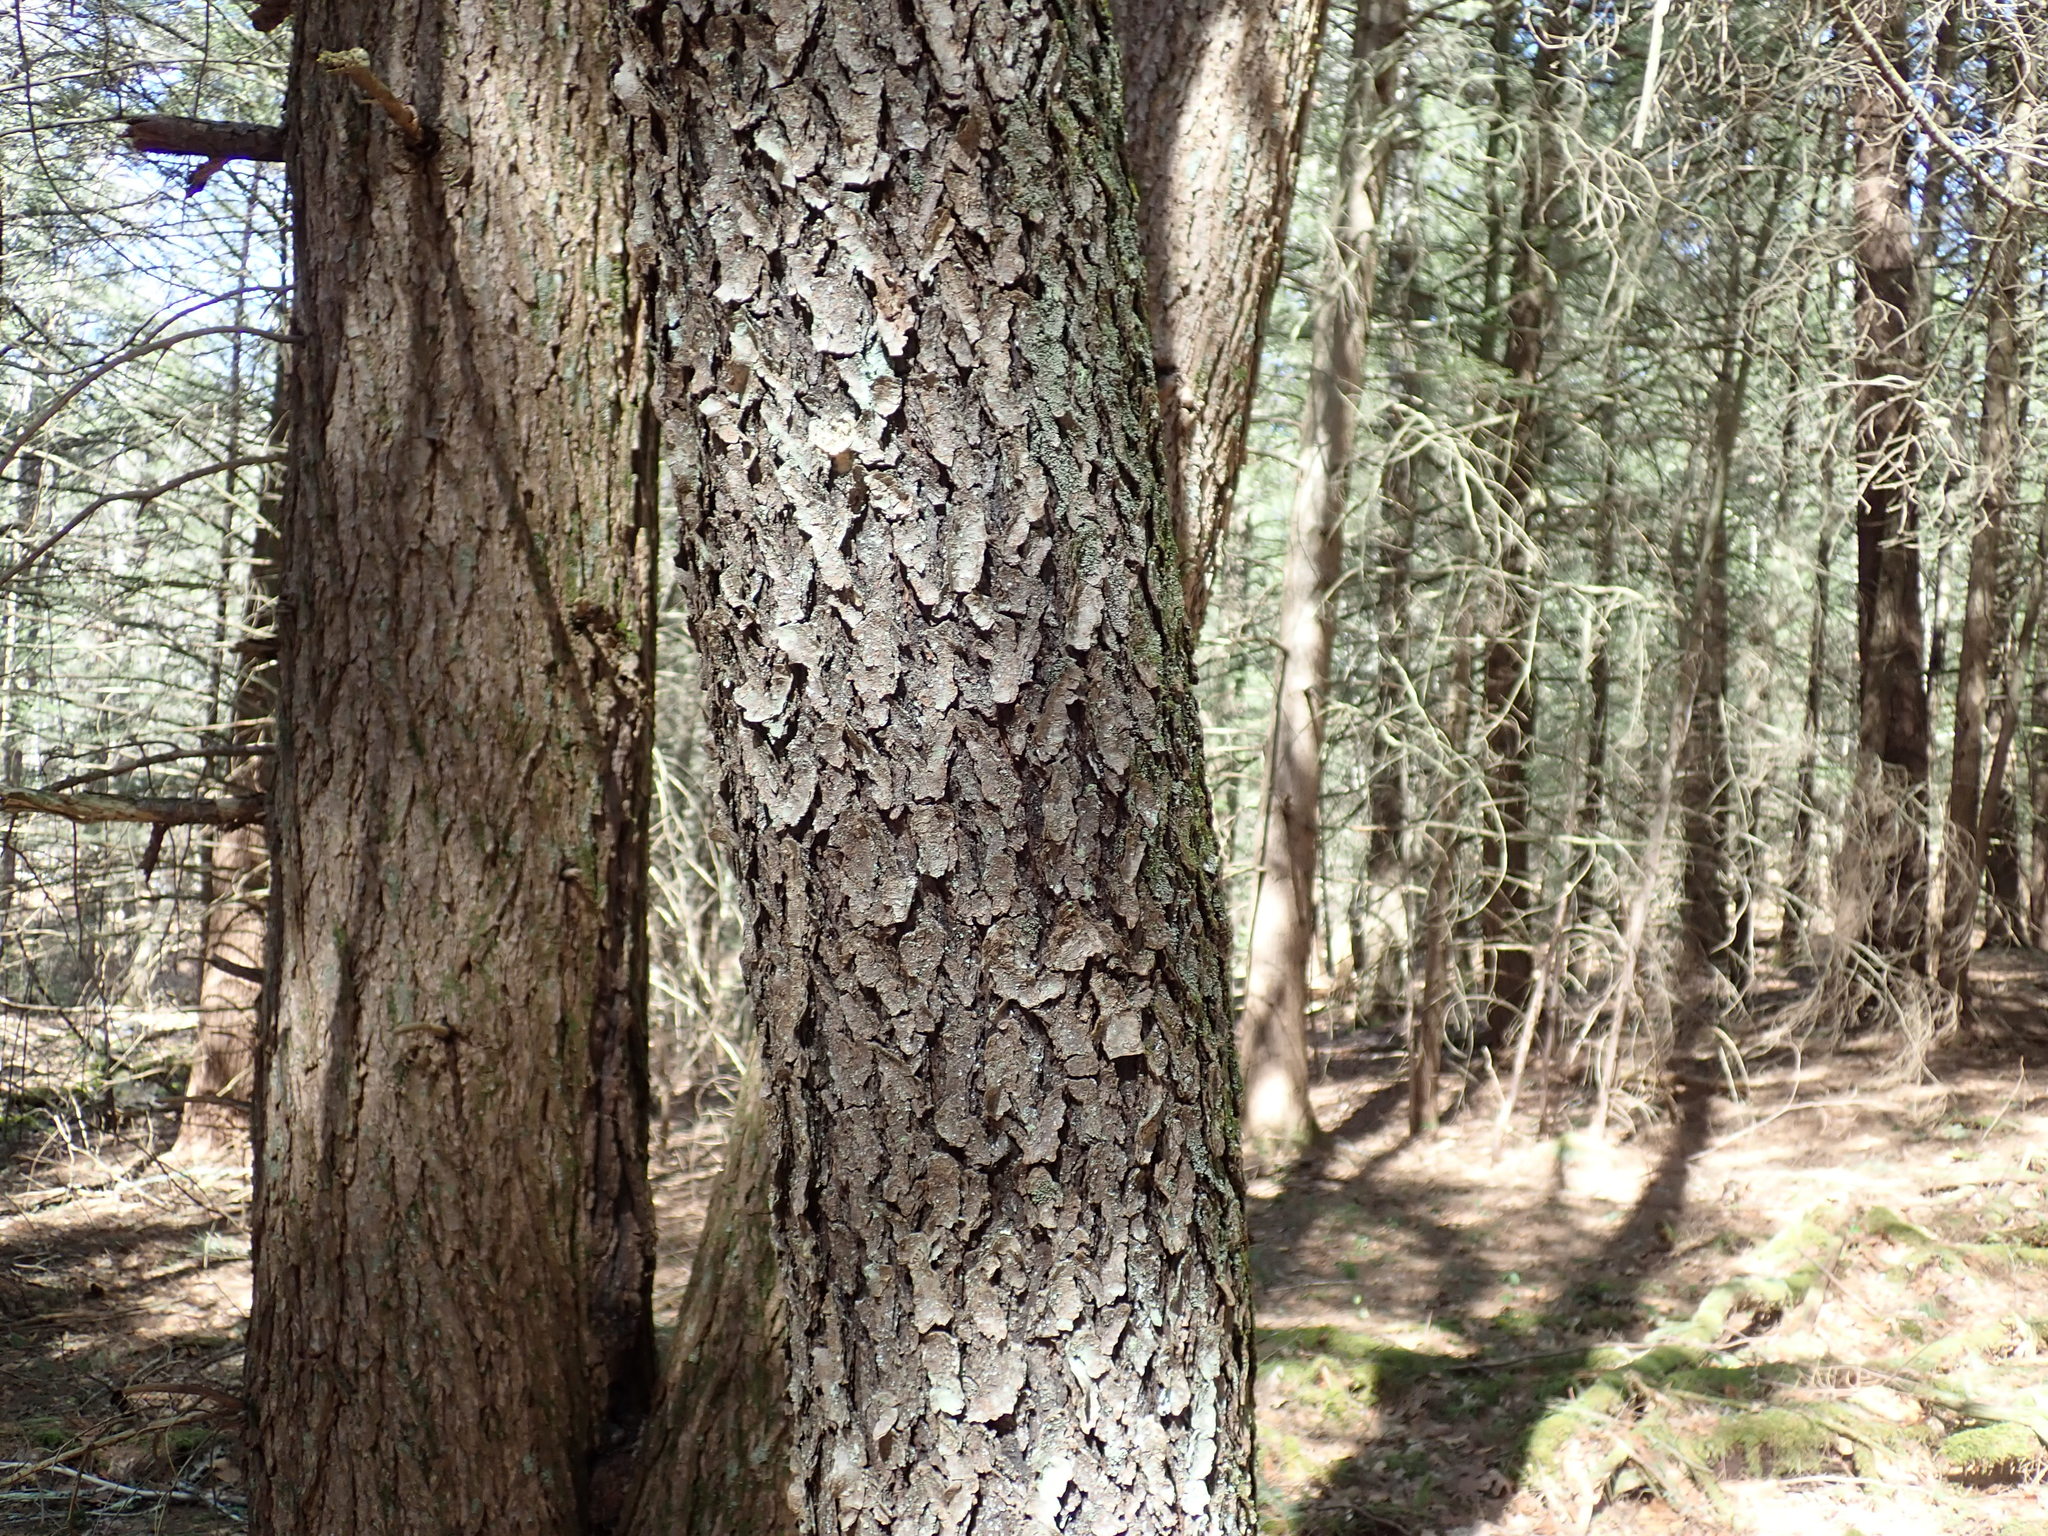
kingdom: Plantae
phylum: Tracheophyta
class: Magnoliopsida
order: Rosales
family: Rosaceae
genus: Prunus
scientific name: Prunus serotina
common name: Black cherry
